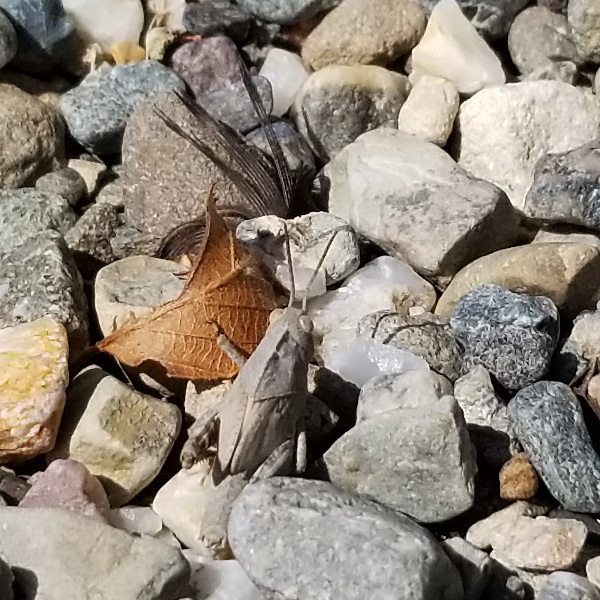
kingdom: Animalia
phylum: Arthropoda
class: Insecta
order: Orthoptera
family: Acrididae
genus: Dissosteira
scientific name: Dissosteira carolina
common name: Carolina grasshopper
